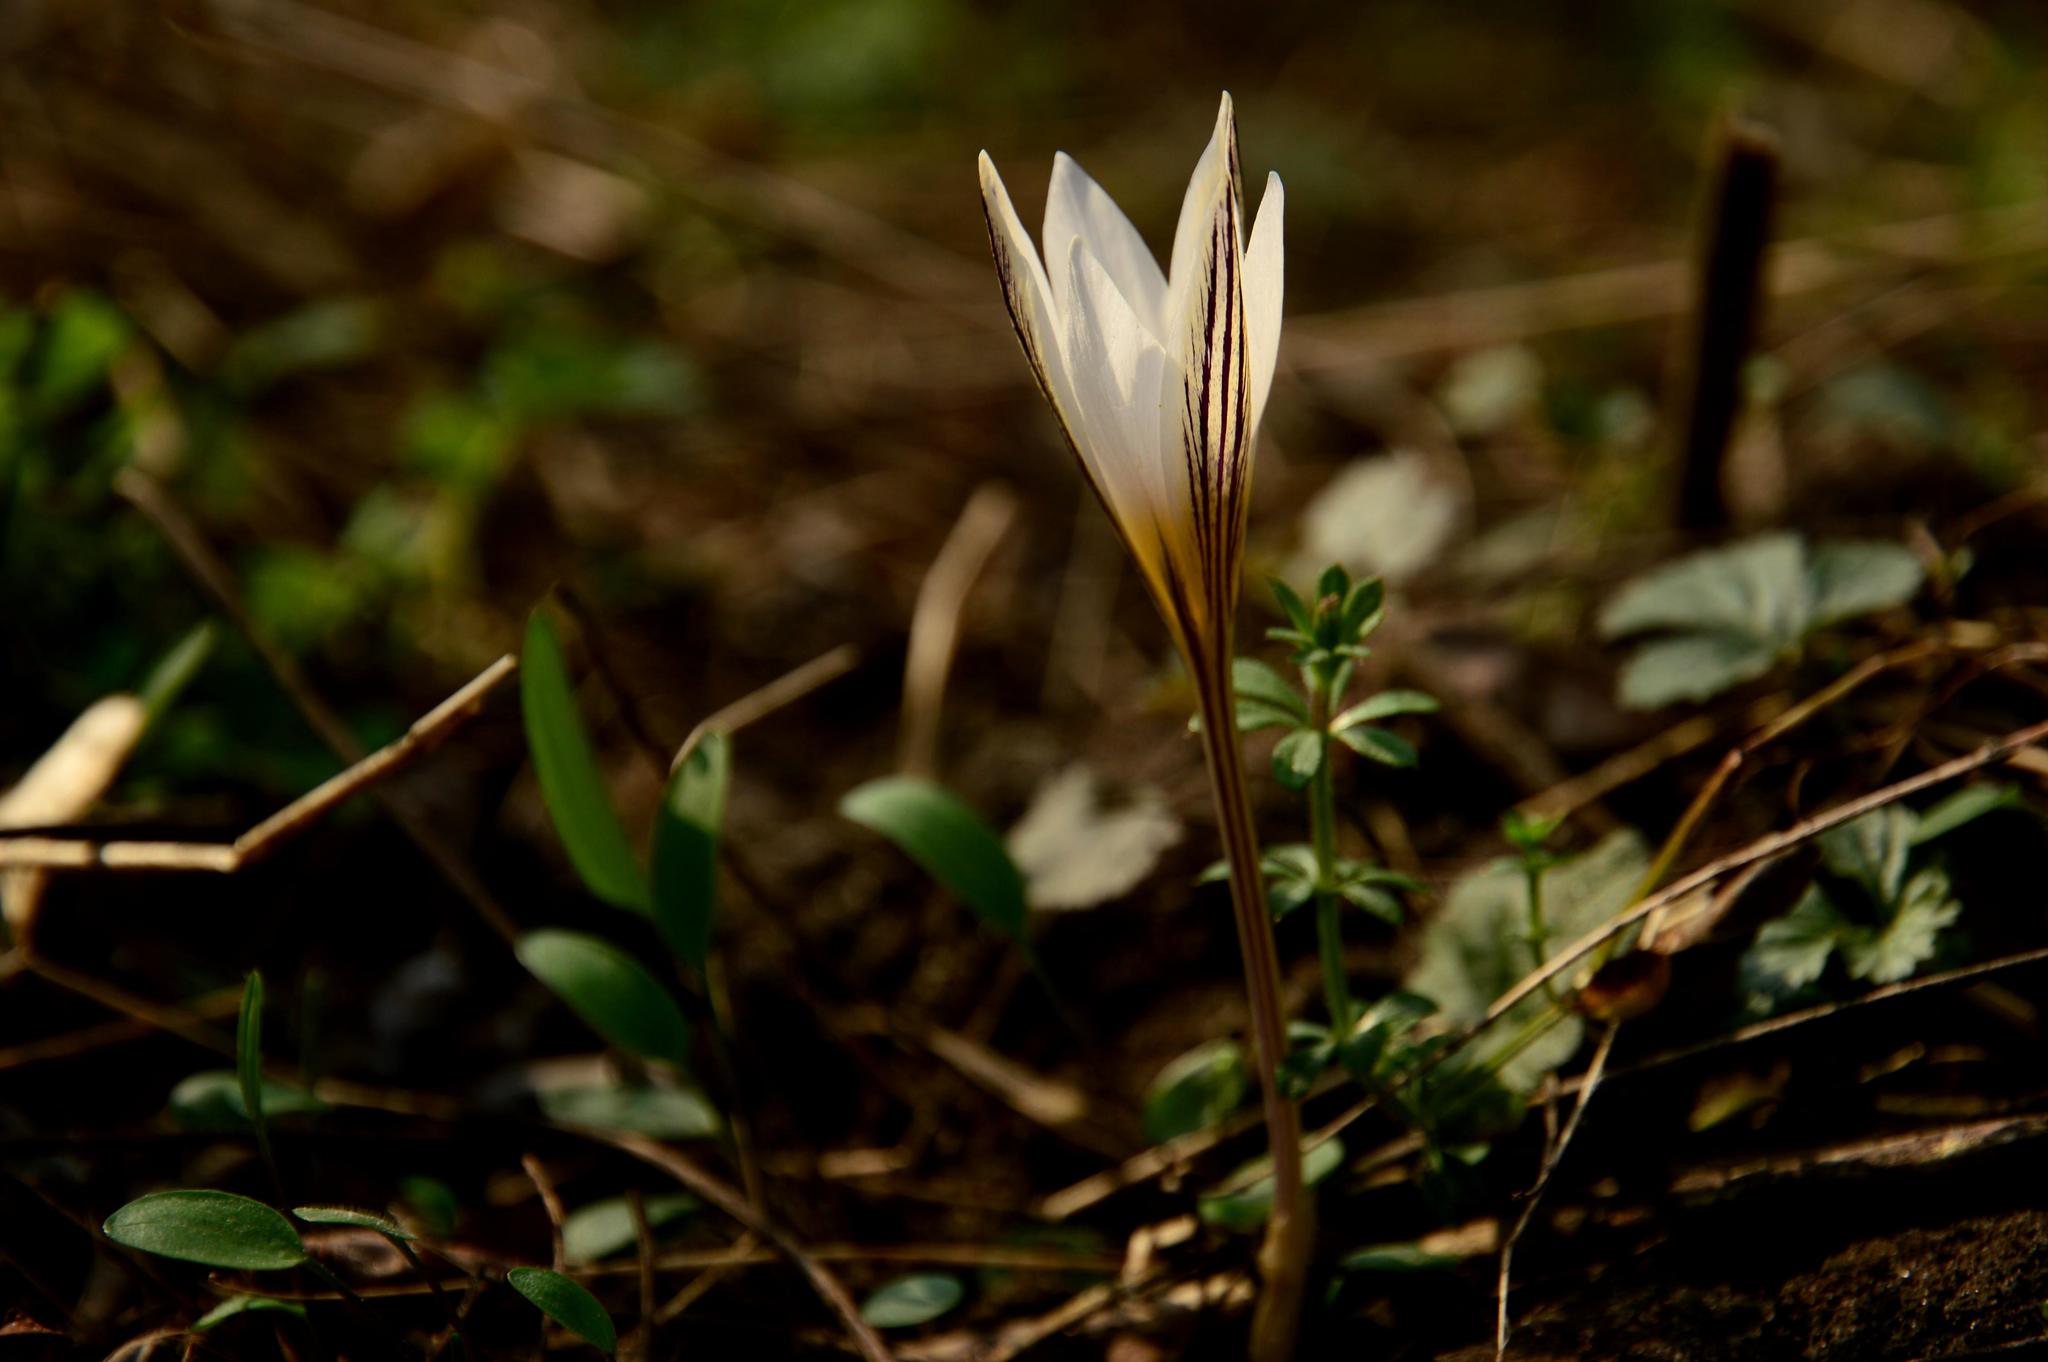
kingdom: Plantae
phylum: Tracheophyta
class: Liliopsida
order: Asparagales
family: Iridaceae
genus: Crocus
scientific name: Crocus reticulatus
